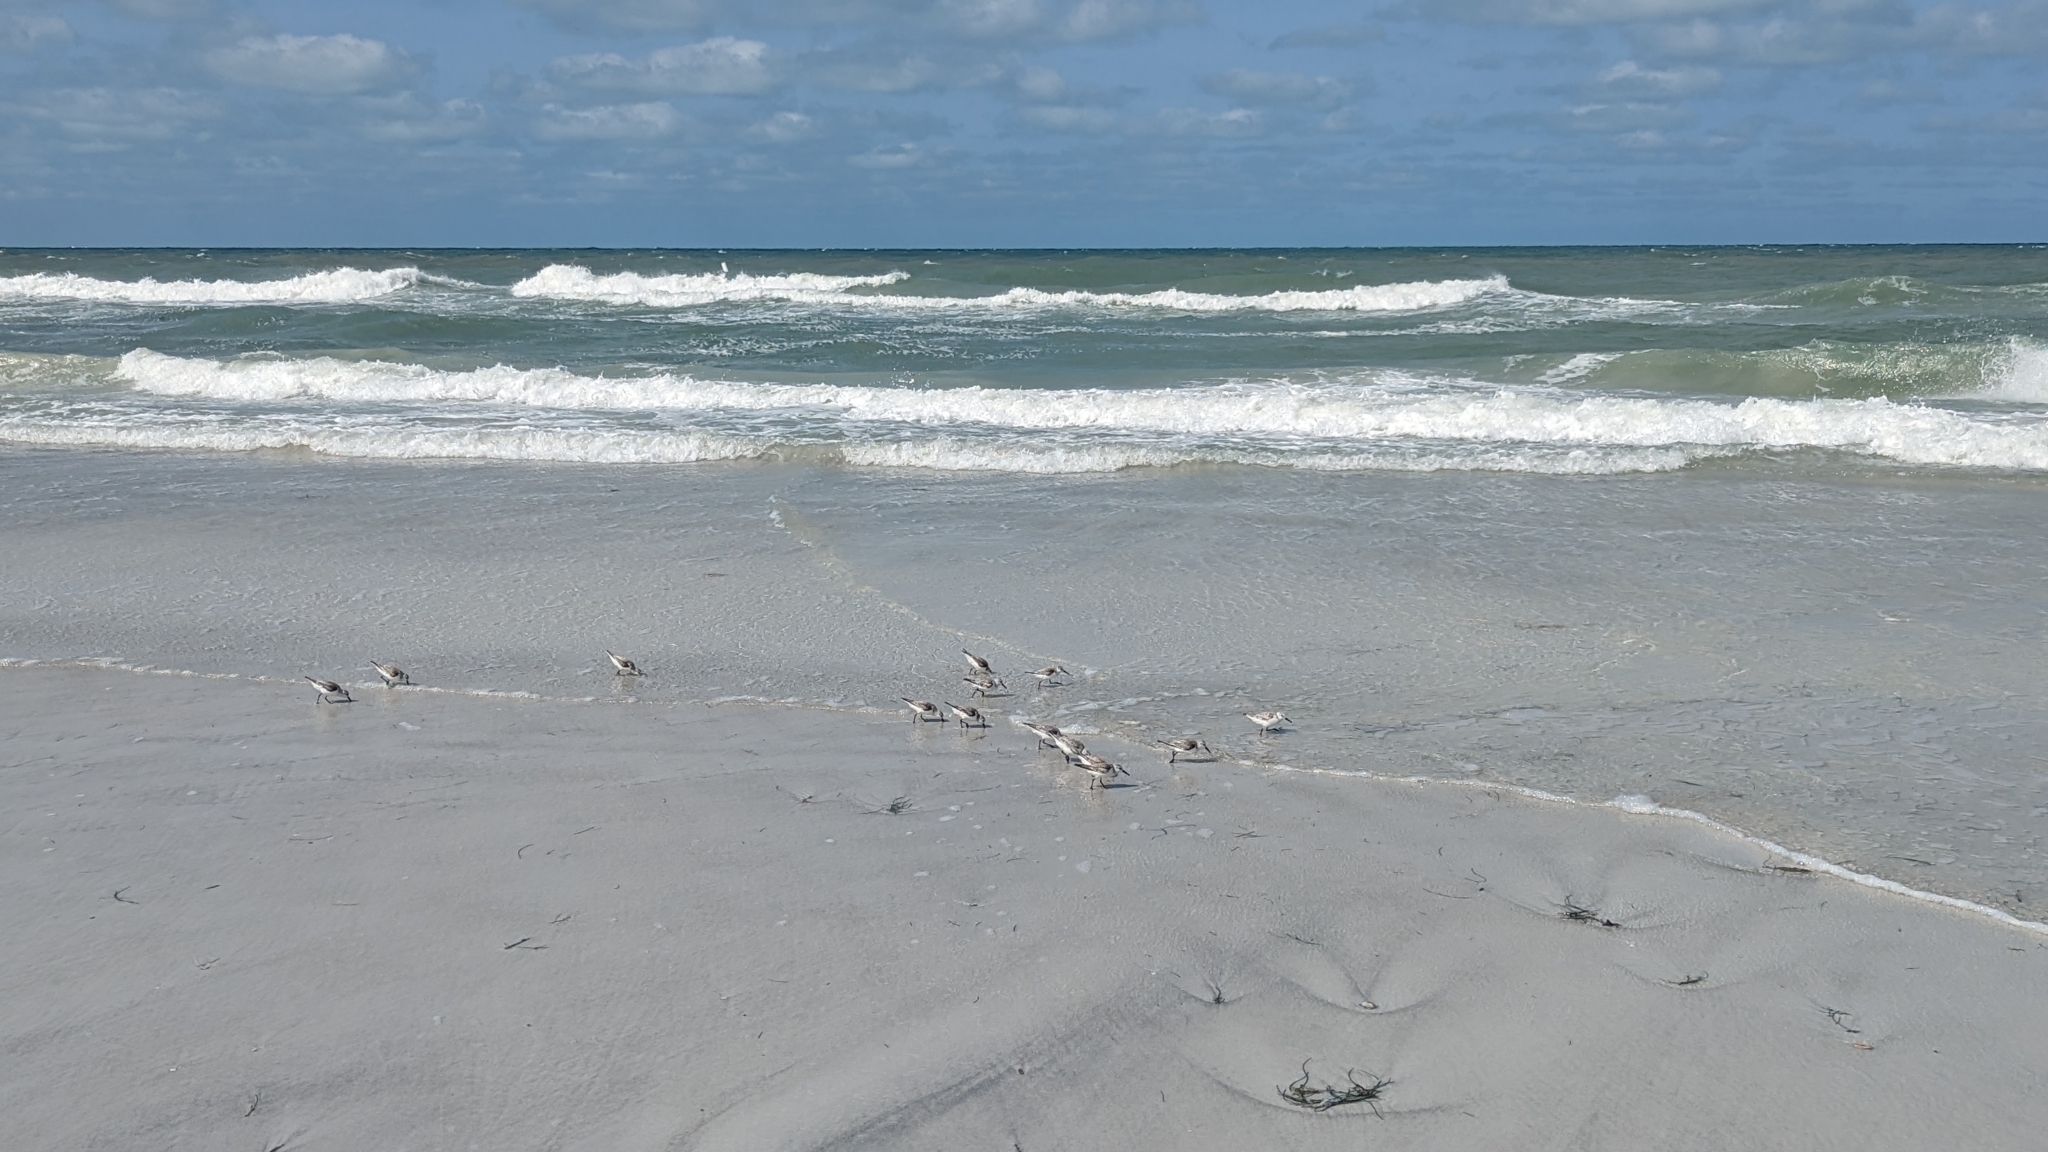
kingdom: Animalia
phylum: Chordata
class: Aves
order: Charadriiformes
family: Scolopacidae
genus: Calidris
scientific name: Calidris alba
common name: Sanderling
